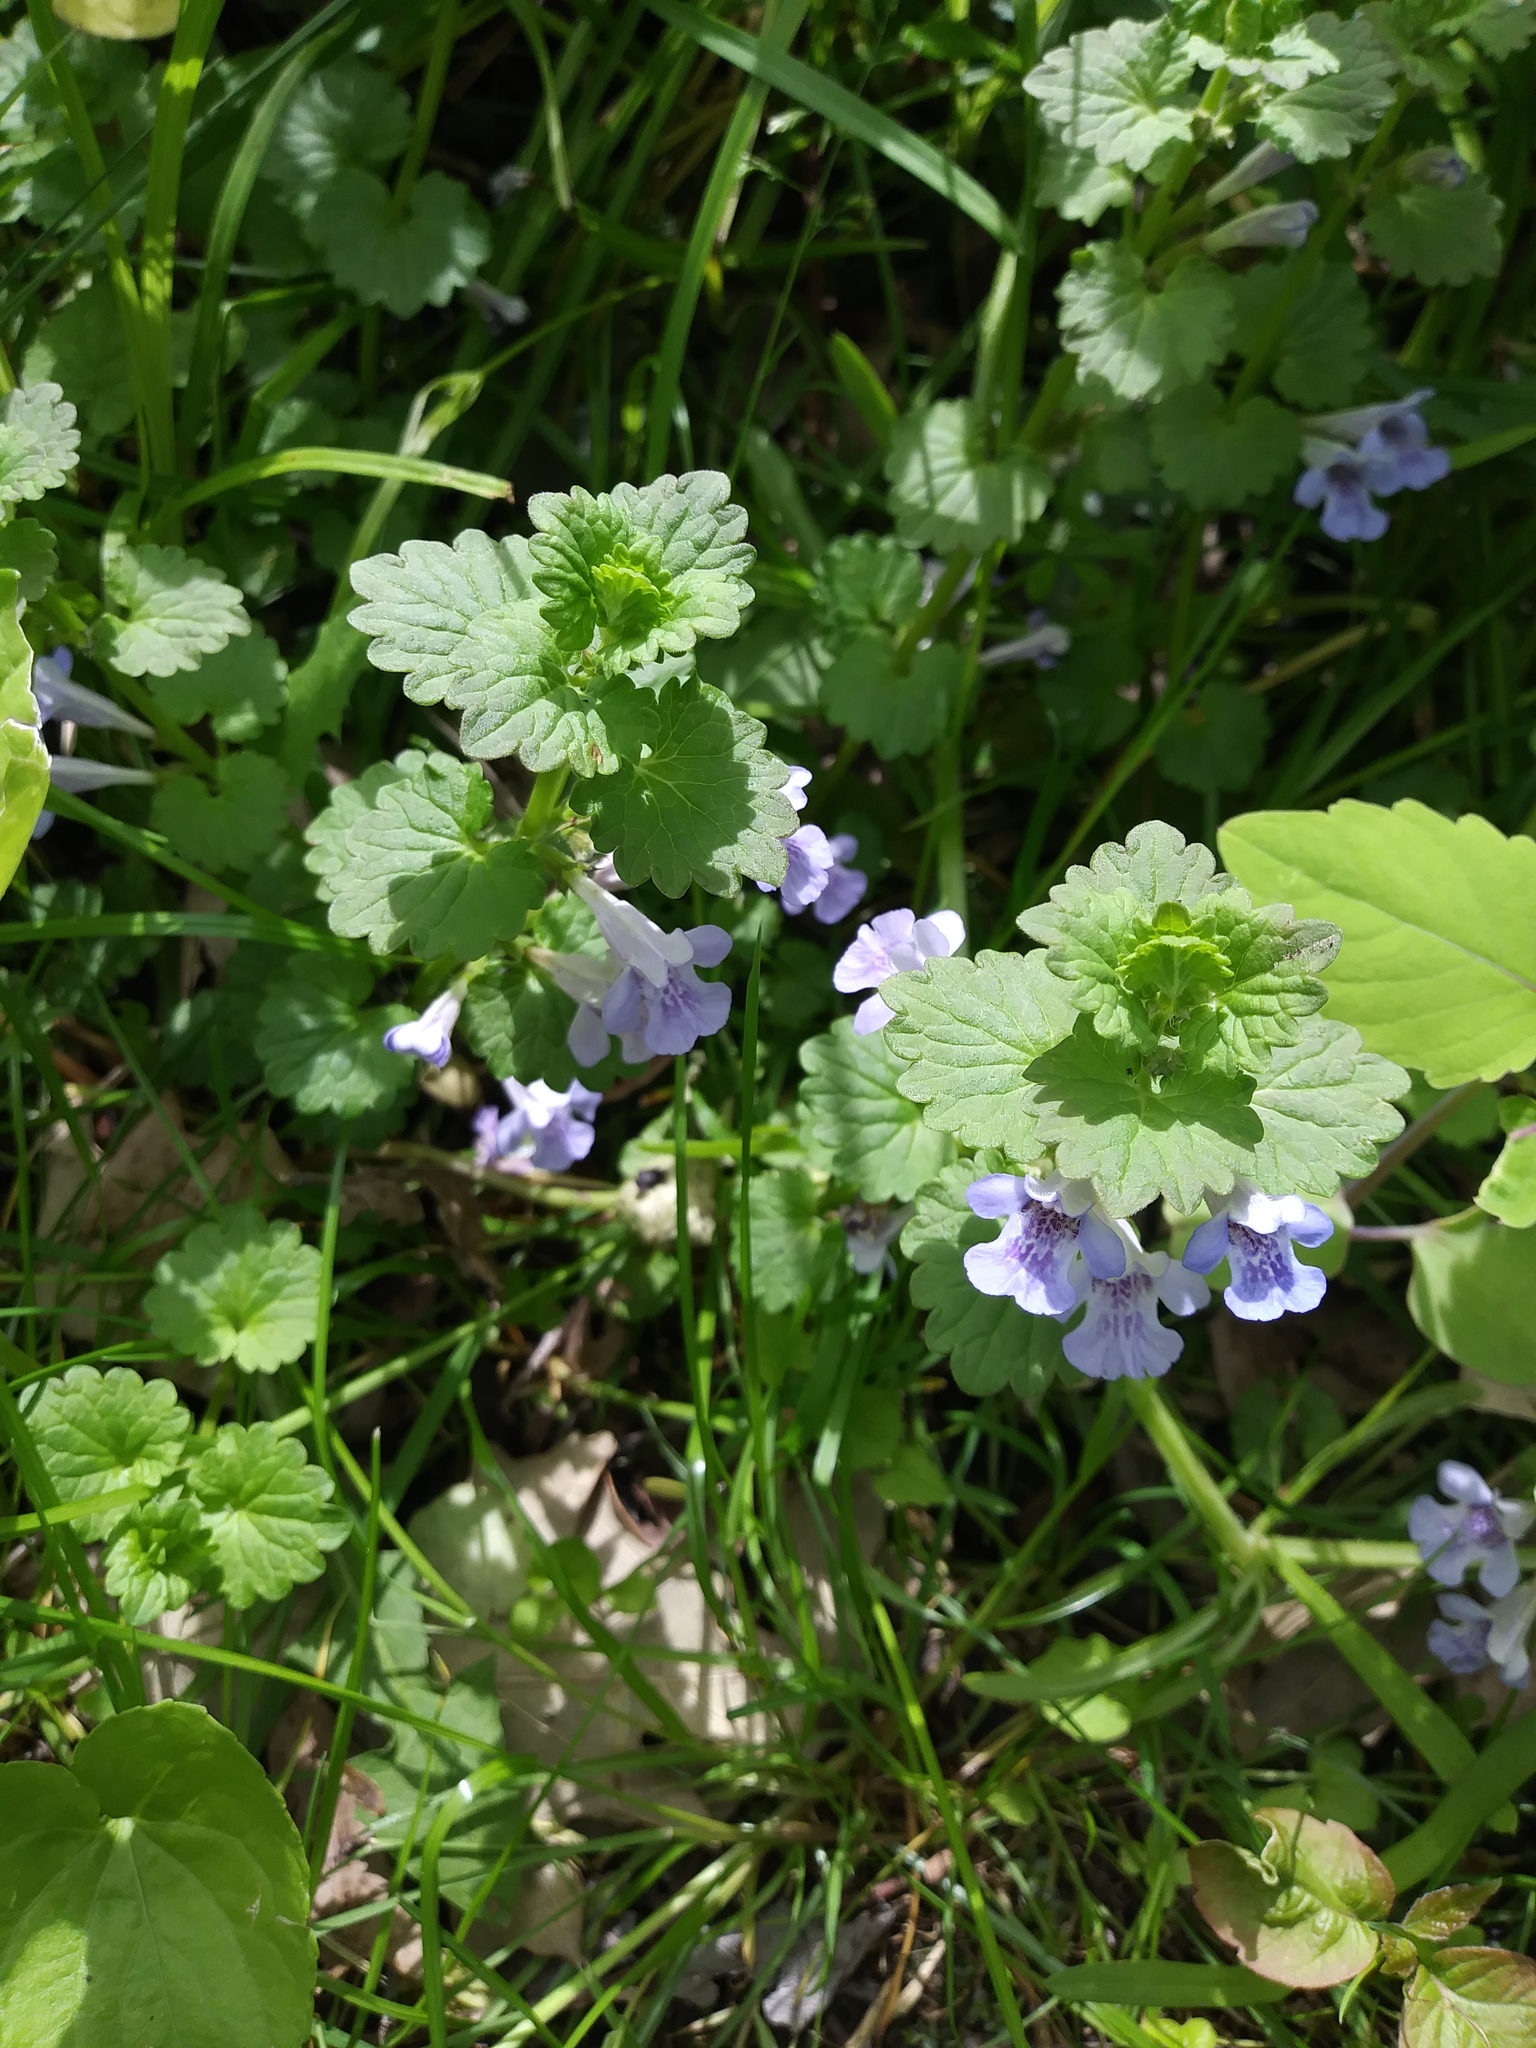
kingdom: Plantae
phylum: Tracheophyta
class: Magnoliopsida
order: Lamiales
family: Lamiaceae
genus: Glechoma
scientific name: Glechoma hederacea
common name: Ground ivy
